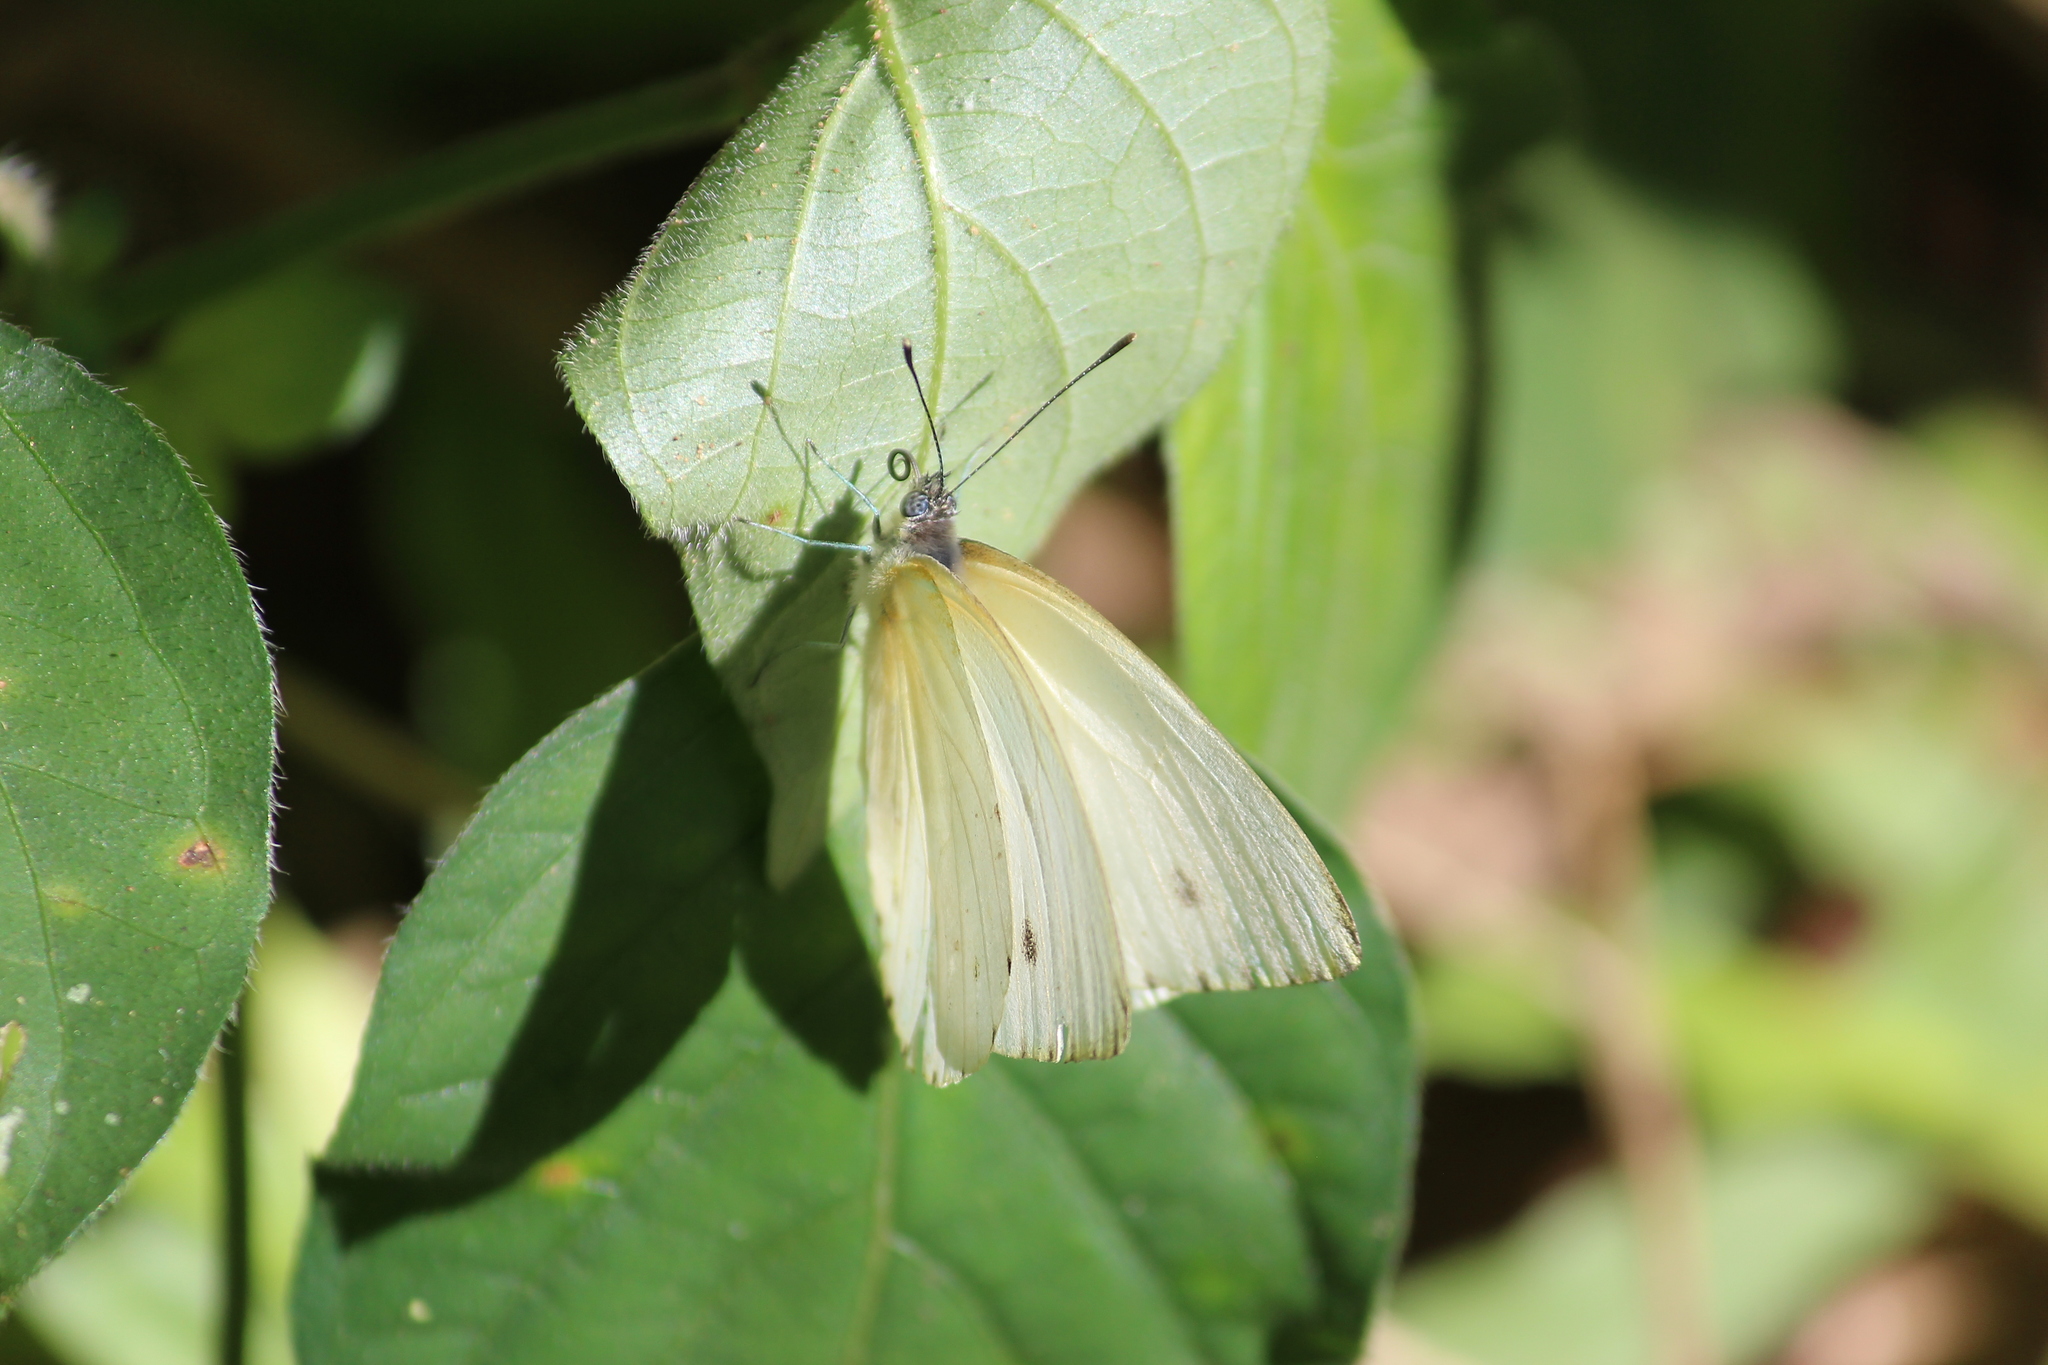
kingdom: Animalia
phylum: Arthropoda
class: Insecta
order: Lepidoptera
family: Pieridae
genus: Dixeia
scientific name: Dixeia pigea
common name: Ant-heap small white
